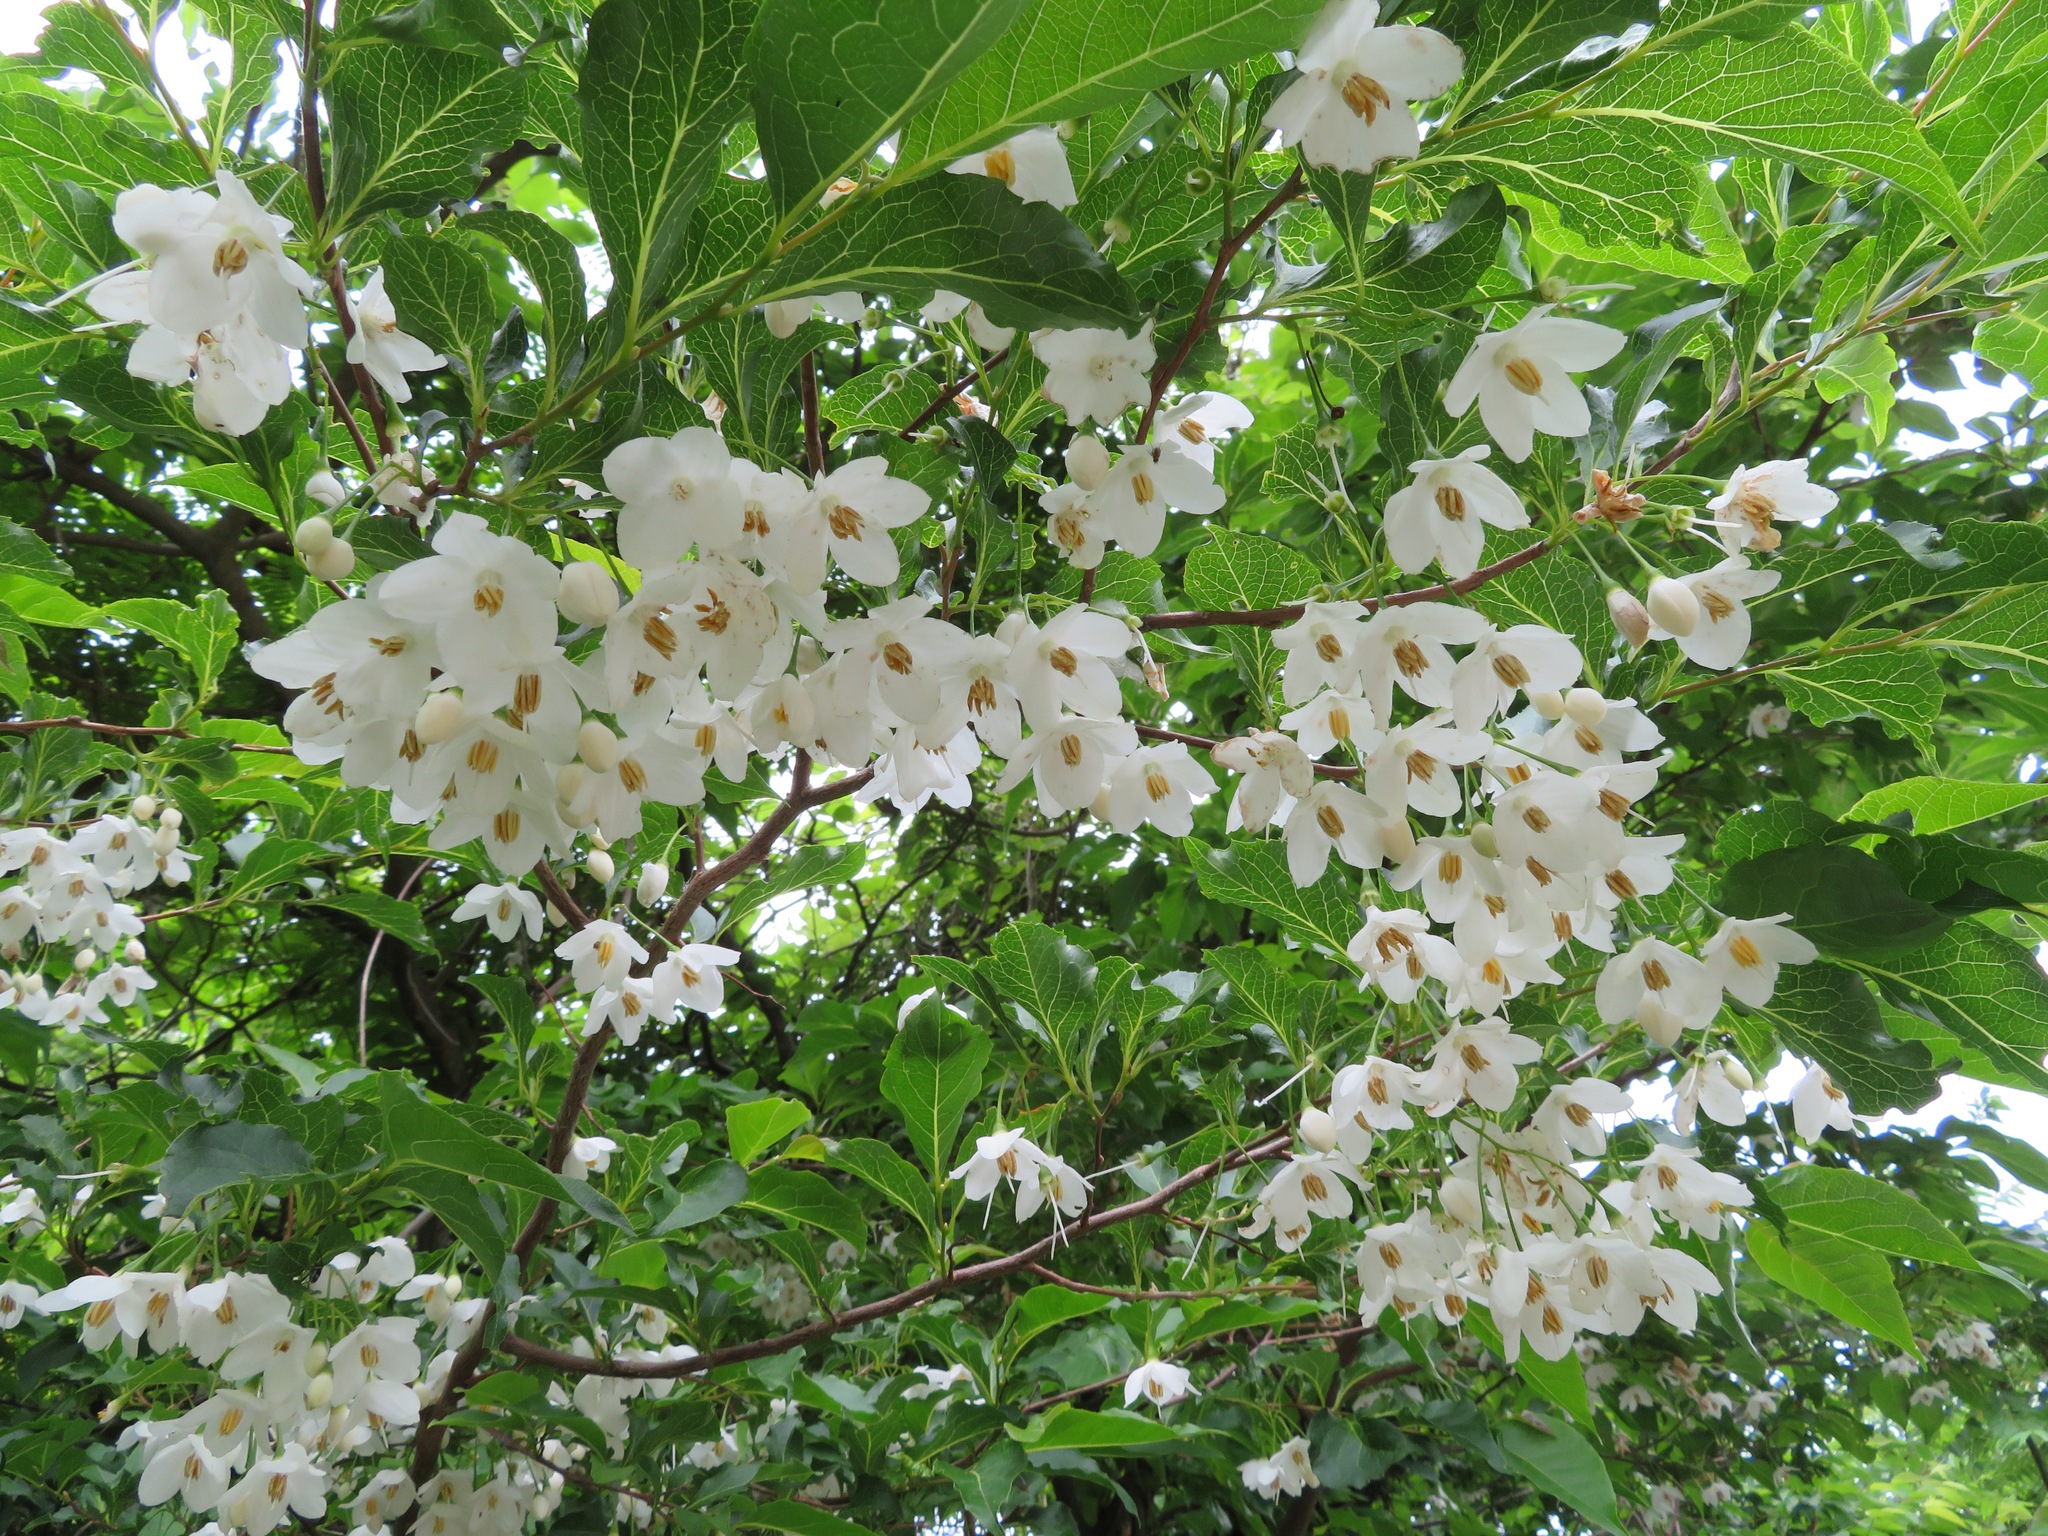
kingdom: Plantae
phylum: Tracheophyta
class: Magnoliopsida
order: Ericales
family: Styracaceae
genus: Styrax
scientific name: Styrax japonicus
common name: Japanese snowbell
